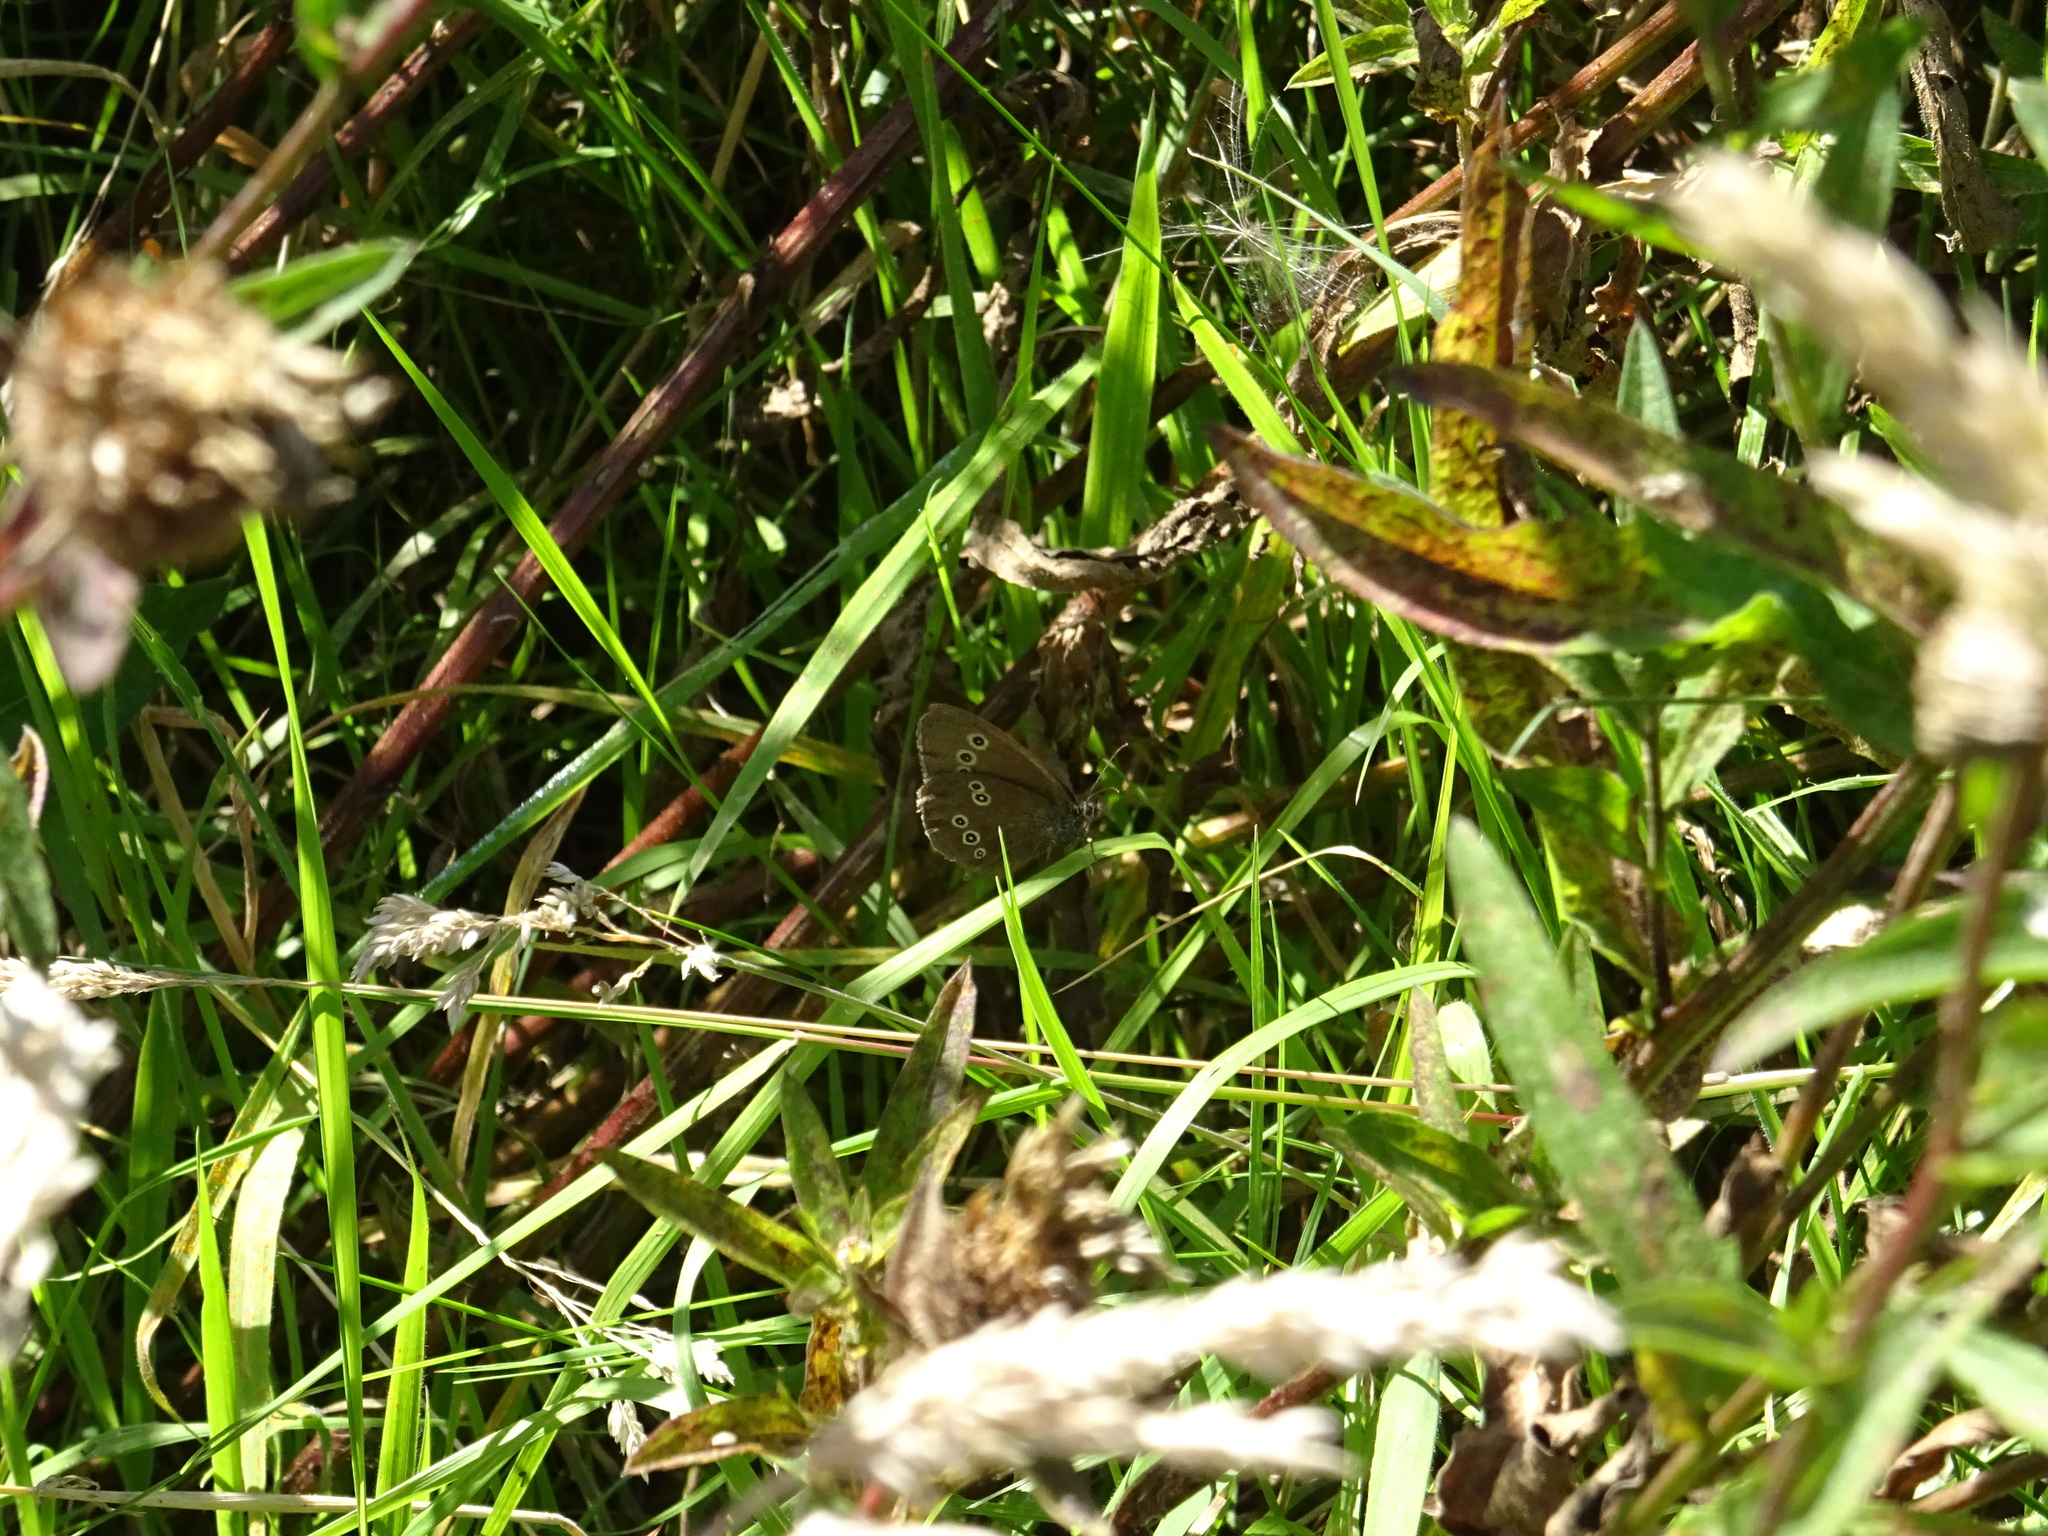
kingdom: Animalia
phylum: Arthropoda
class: Insecta
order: Lepidoptera
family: Nymphalidae
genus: Aphantopus
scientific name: Aphantopus hyperantus
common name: Ringlet
